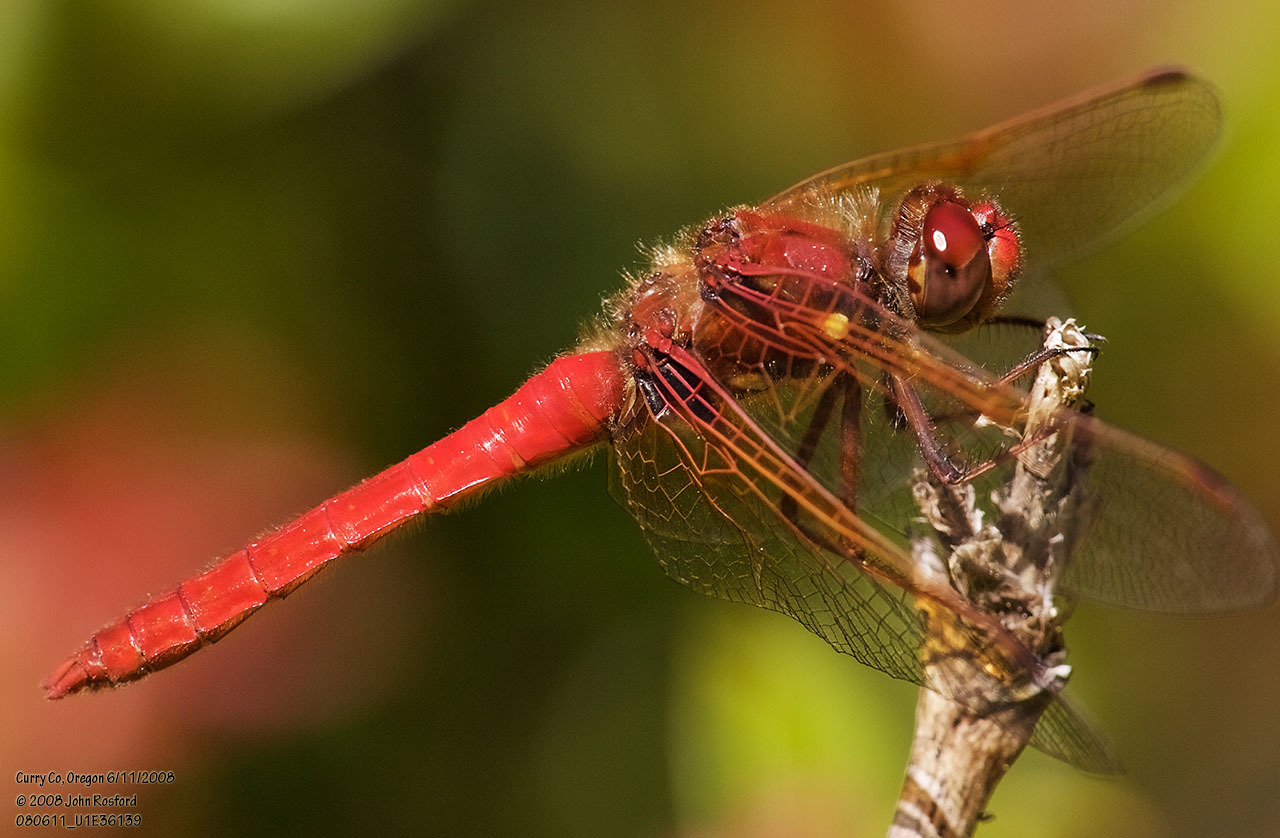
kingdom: Animalia
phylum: Arthropoda
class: Insecta
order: Odonata
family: Libellulidae
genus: Sympetrum
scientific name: Sympetrum illotum
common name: Cardinal meadowhawk
